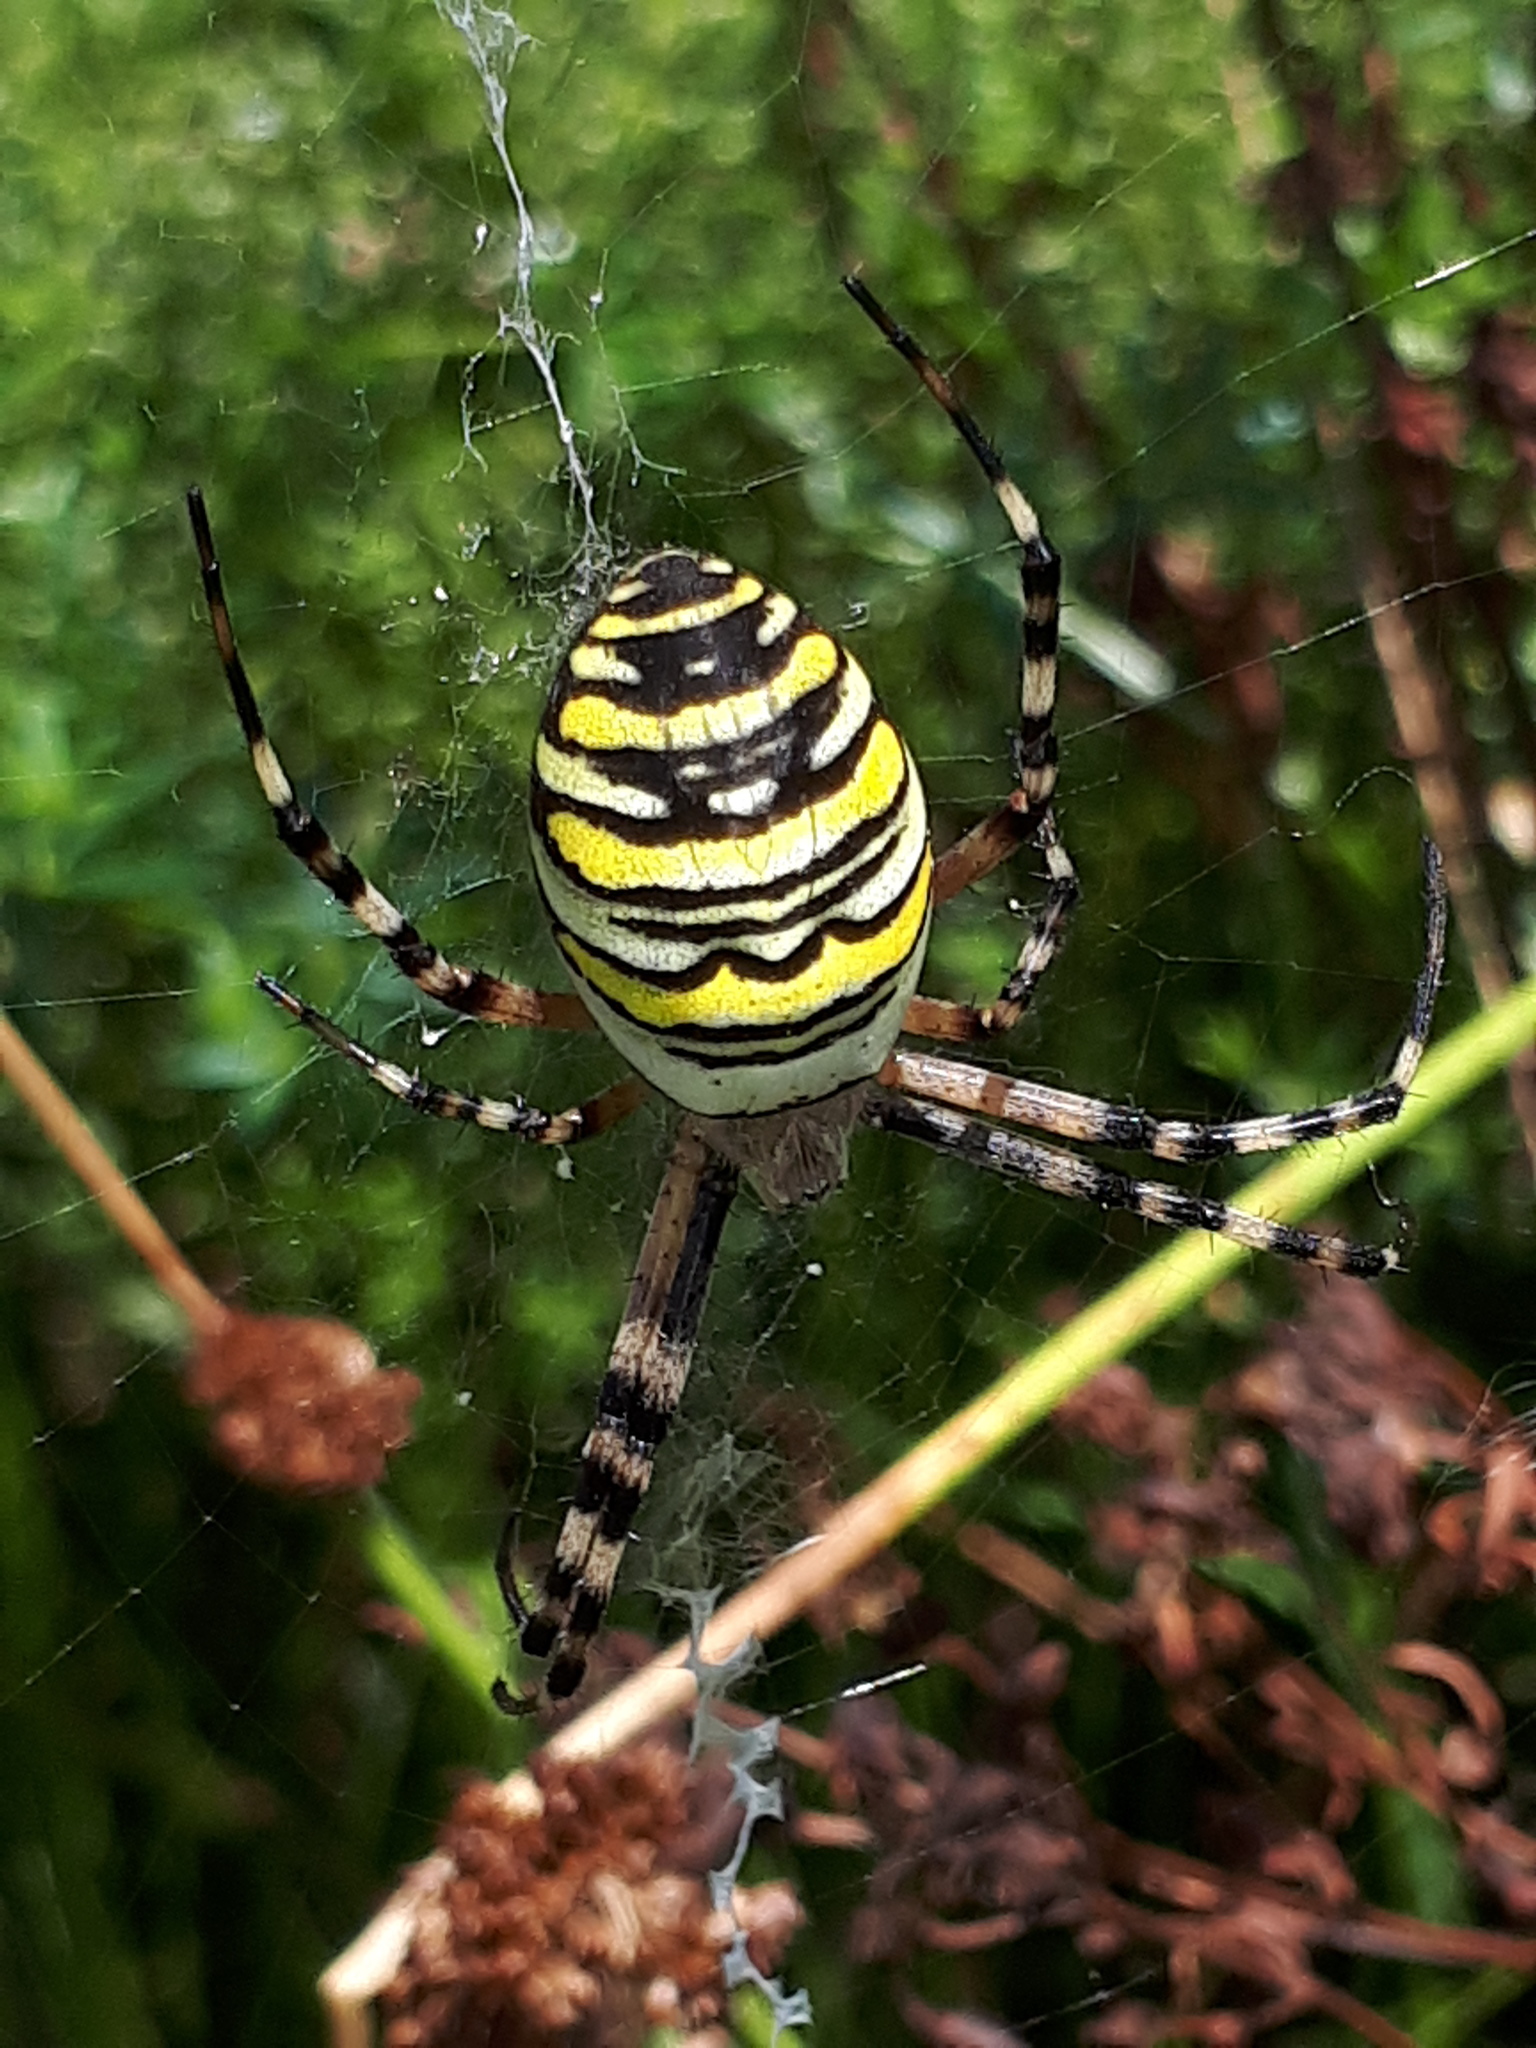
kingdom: Animalia
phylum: Arthropoda
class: Arachnida
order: Araneae
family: Araneidae
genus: Argiope
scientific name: Argiope bruennichi
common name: Wasp spider
